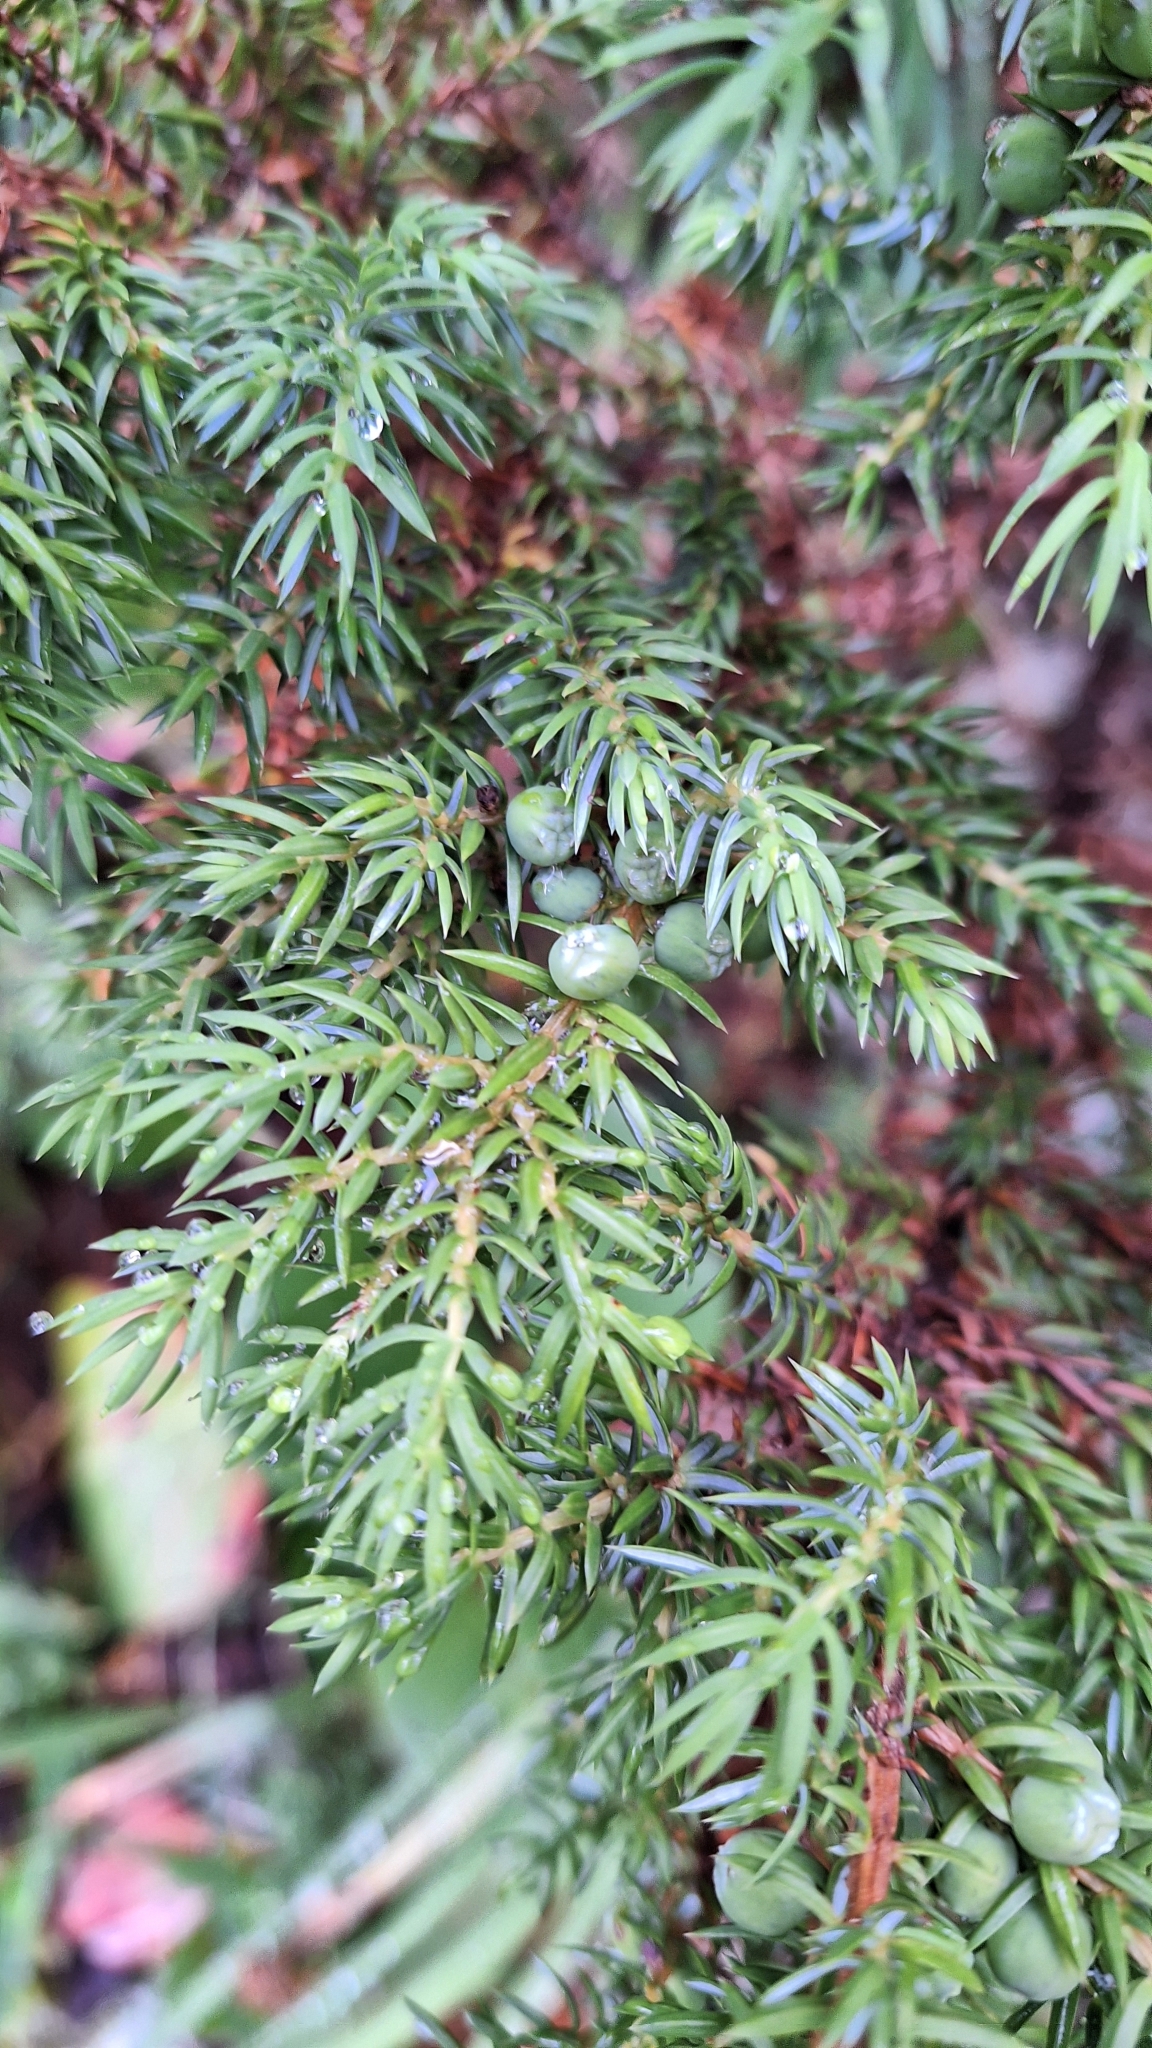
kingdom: Plantae
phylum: Tracheophyta
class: Pinopsida
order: Pinales
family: Cupressaceae
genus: Juniperus
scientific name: Juniperus communis
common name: Common juniper
